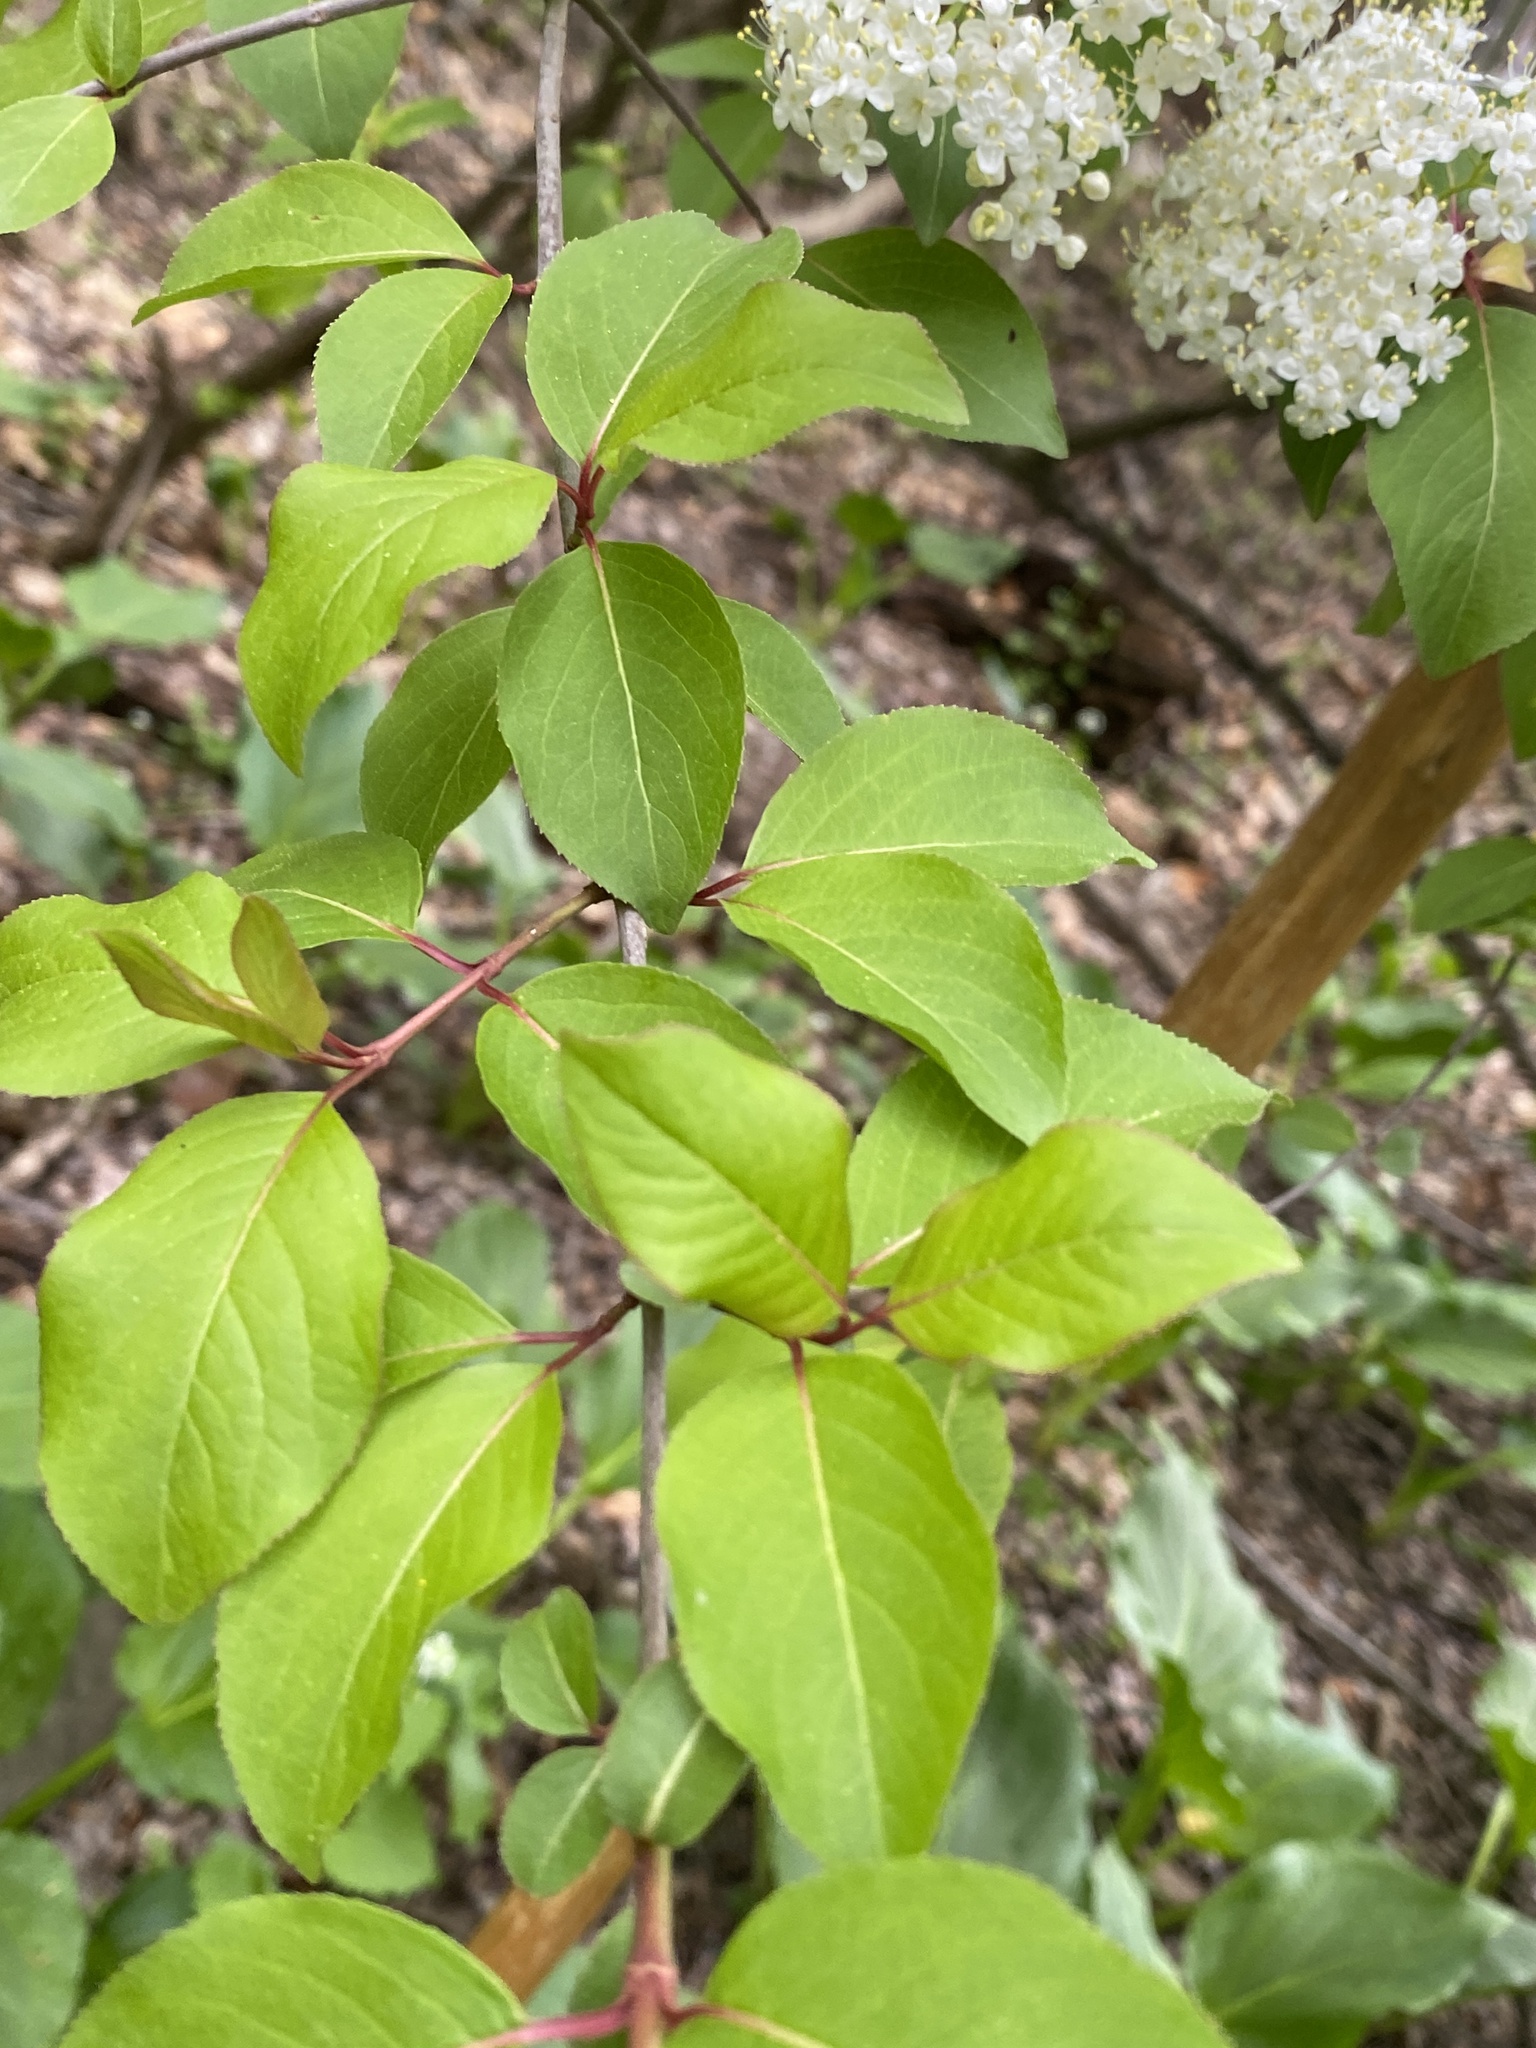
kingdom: Plantae
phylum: Tracheophyta
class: Magnoliopsida
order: Dipsacales
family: Viburnaceae
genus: Viburnum
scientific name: Viburnum prunifolium
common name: Black haw
